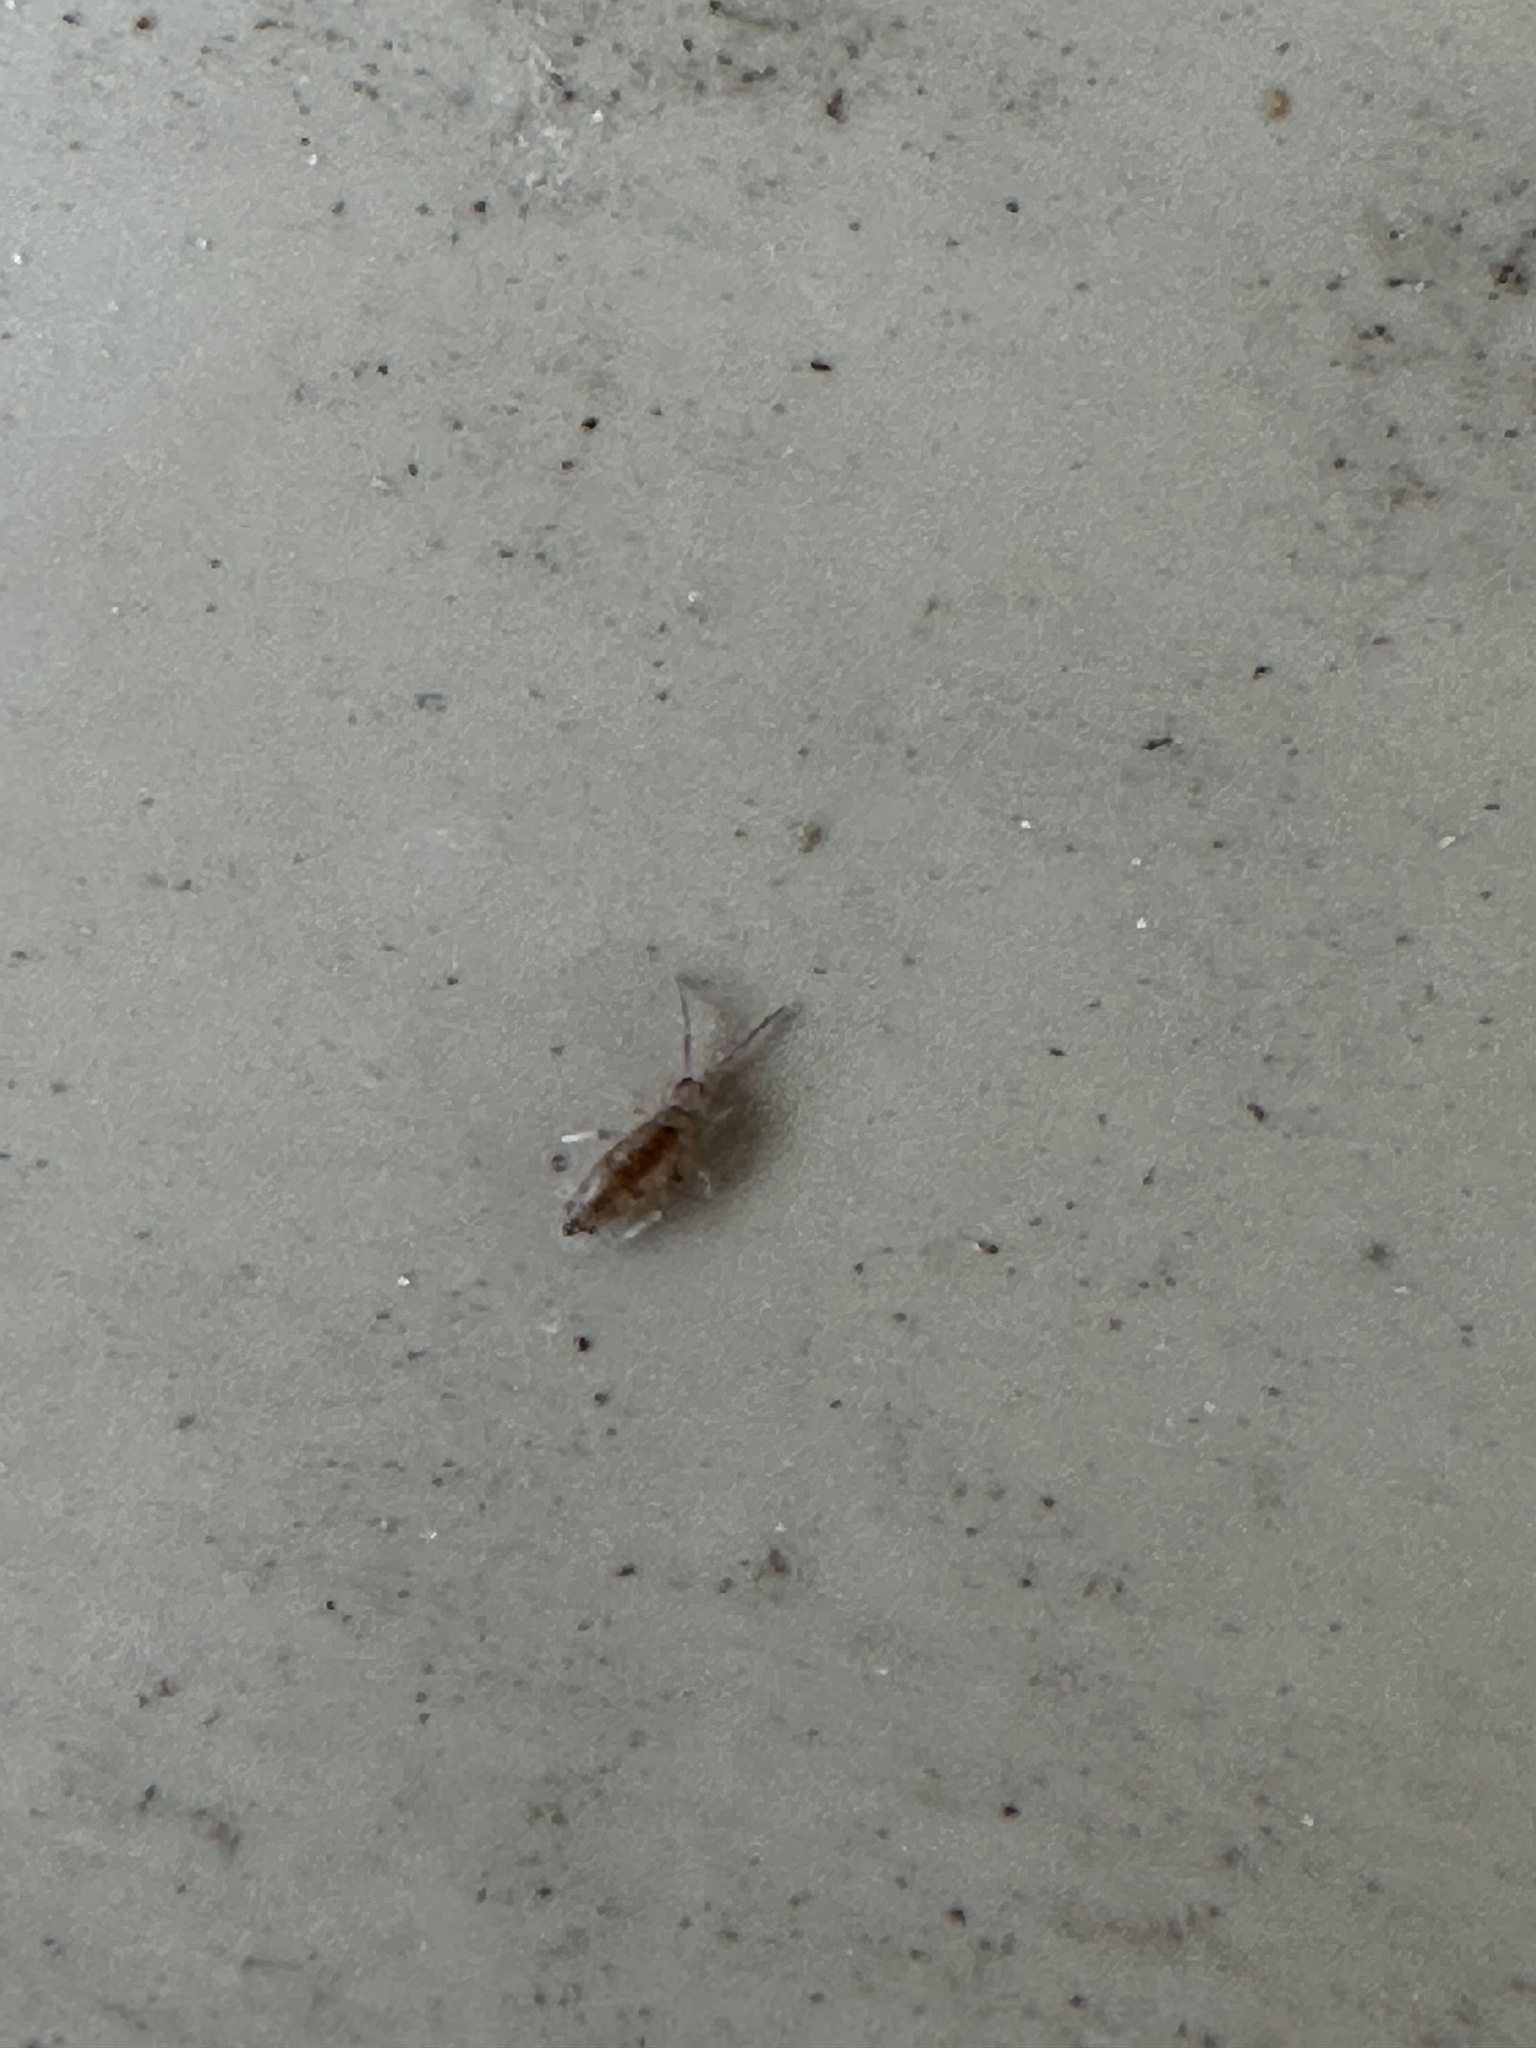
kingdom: Animalia
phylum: Arthropoda
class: Collembola
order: Entomobryomorpha
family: Entomobryidae
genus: Willowsia
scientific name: Willowsia nigromaculata
